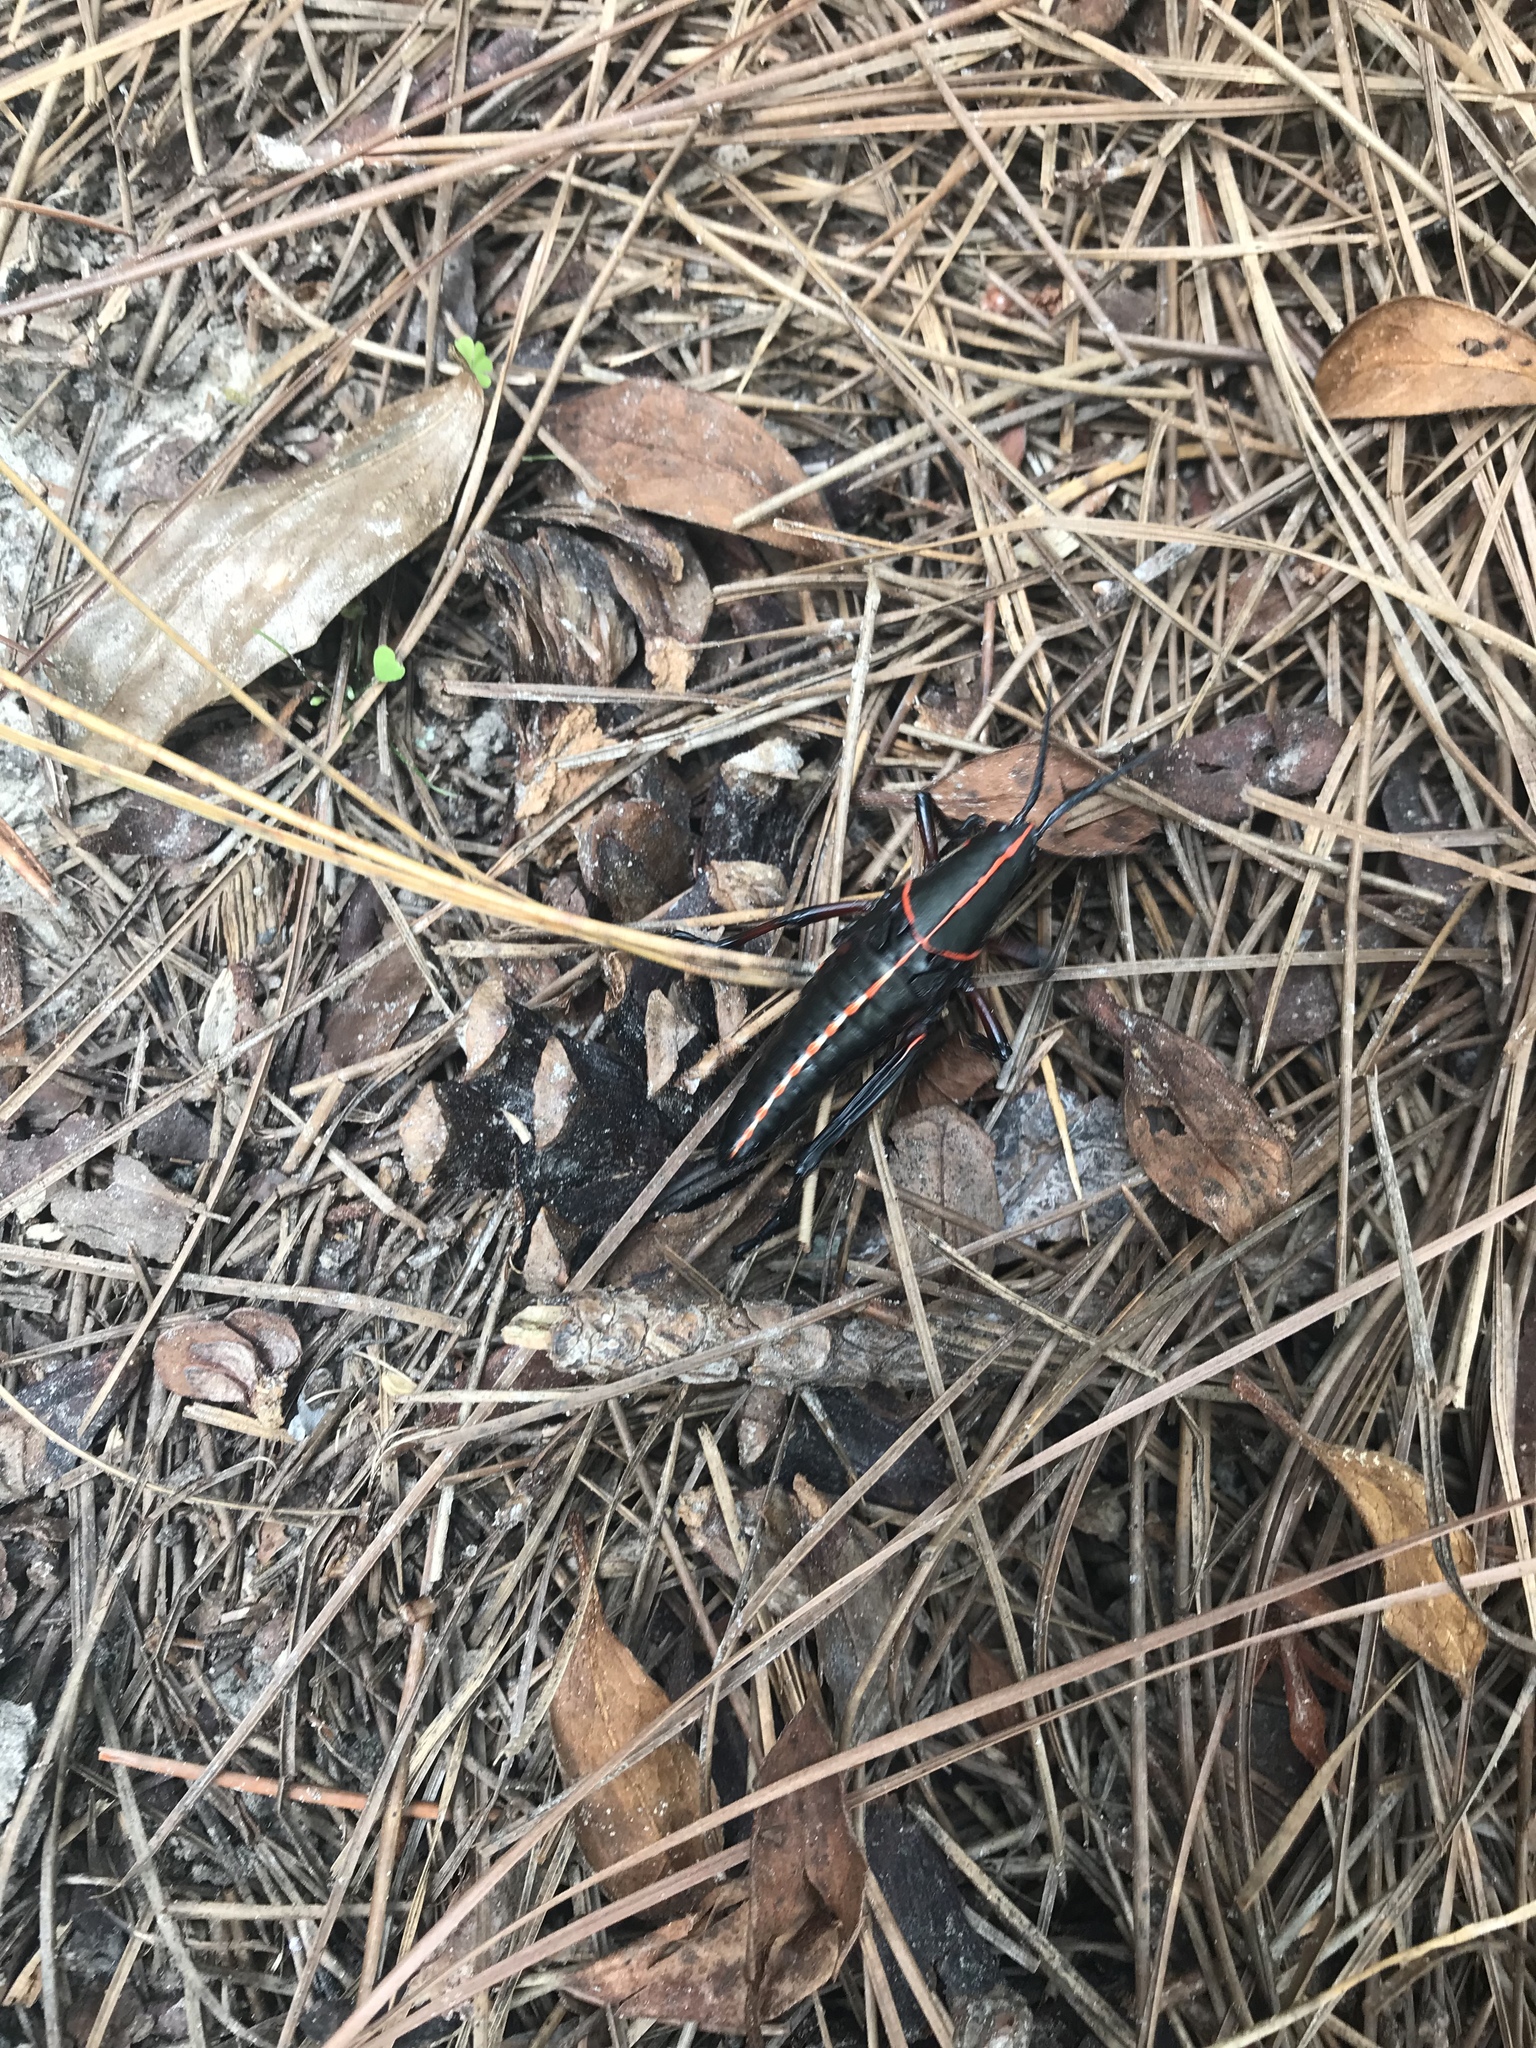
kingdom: Animalia
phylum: Arthropoda
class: Insecta
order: Orthoptera
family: Romaleidae
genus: Romalea
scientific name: Romalea microptera
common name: Eastern lubber grasshopper
